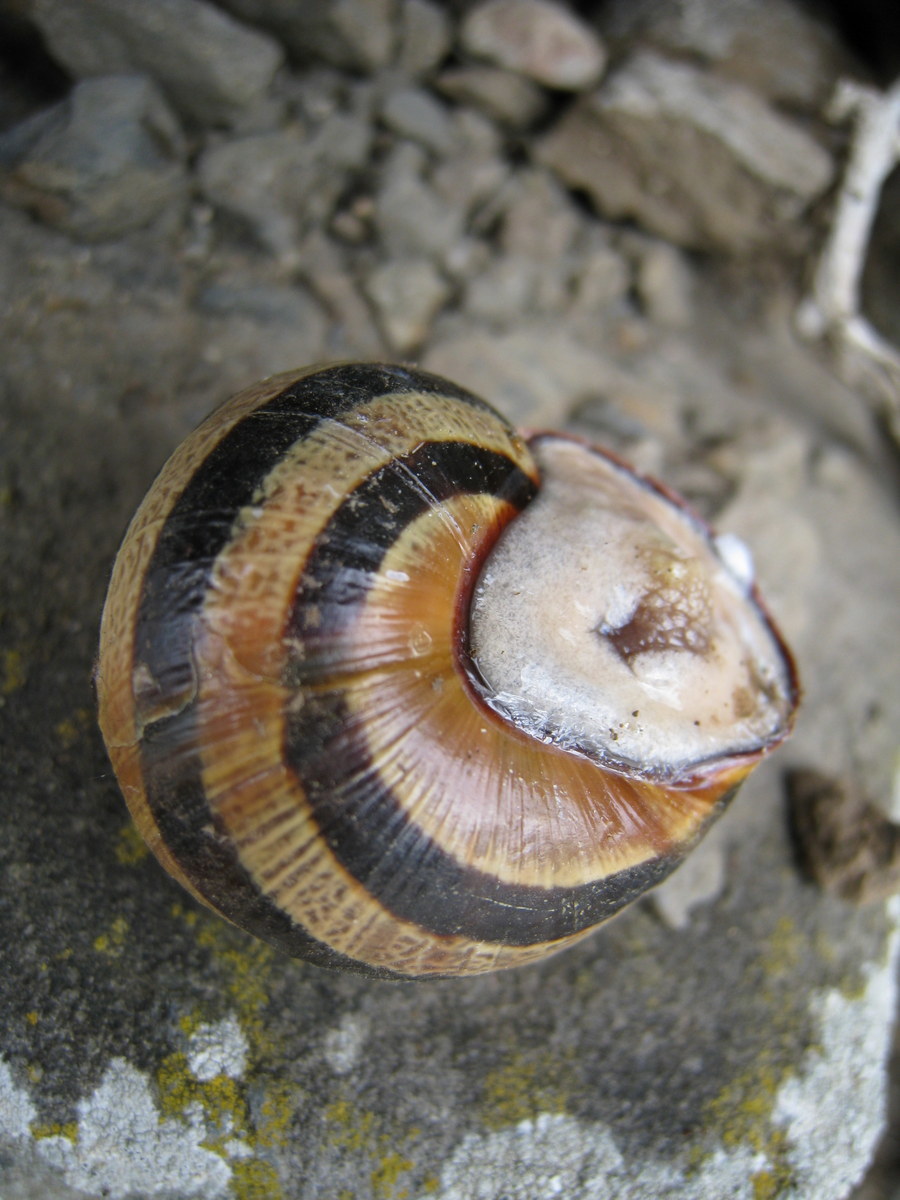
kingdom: Animalia
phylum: Mollusca
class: Gastropoda
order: Stylommatophora
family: Helicidae
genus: Cepaea
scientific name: Cepaea nemoralis
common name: Grovesnail
